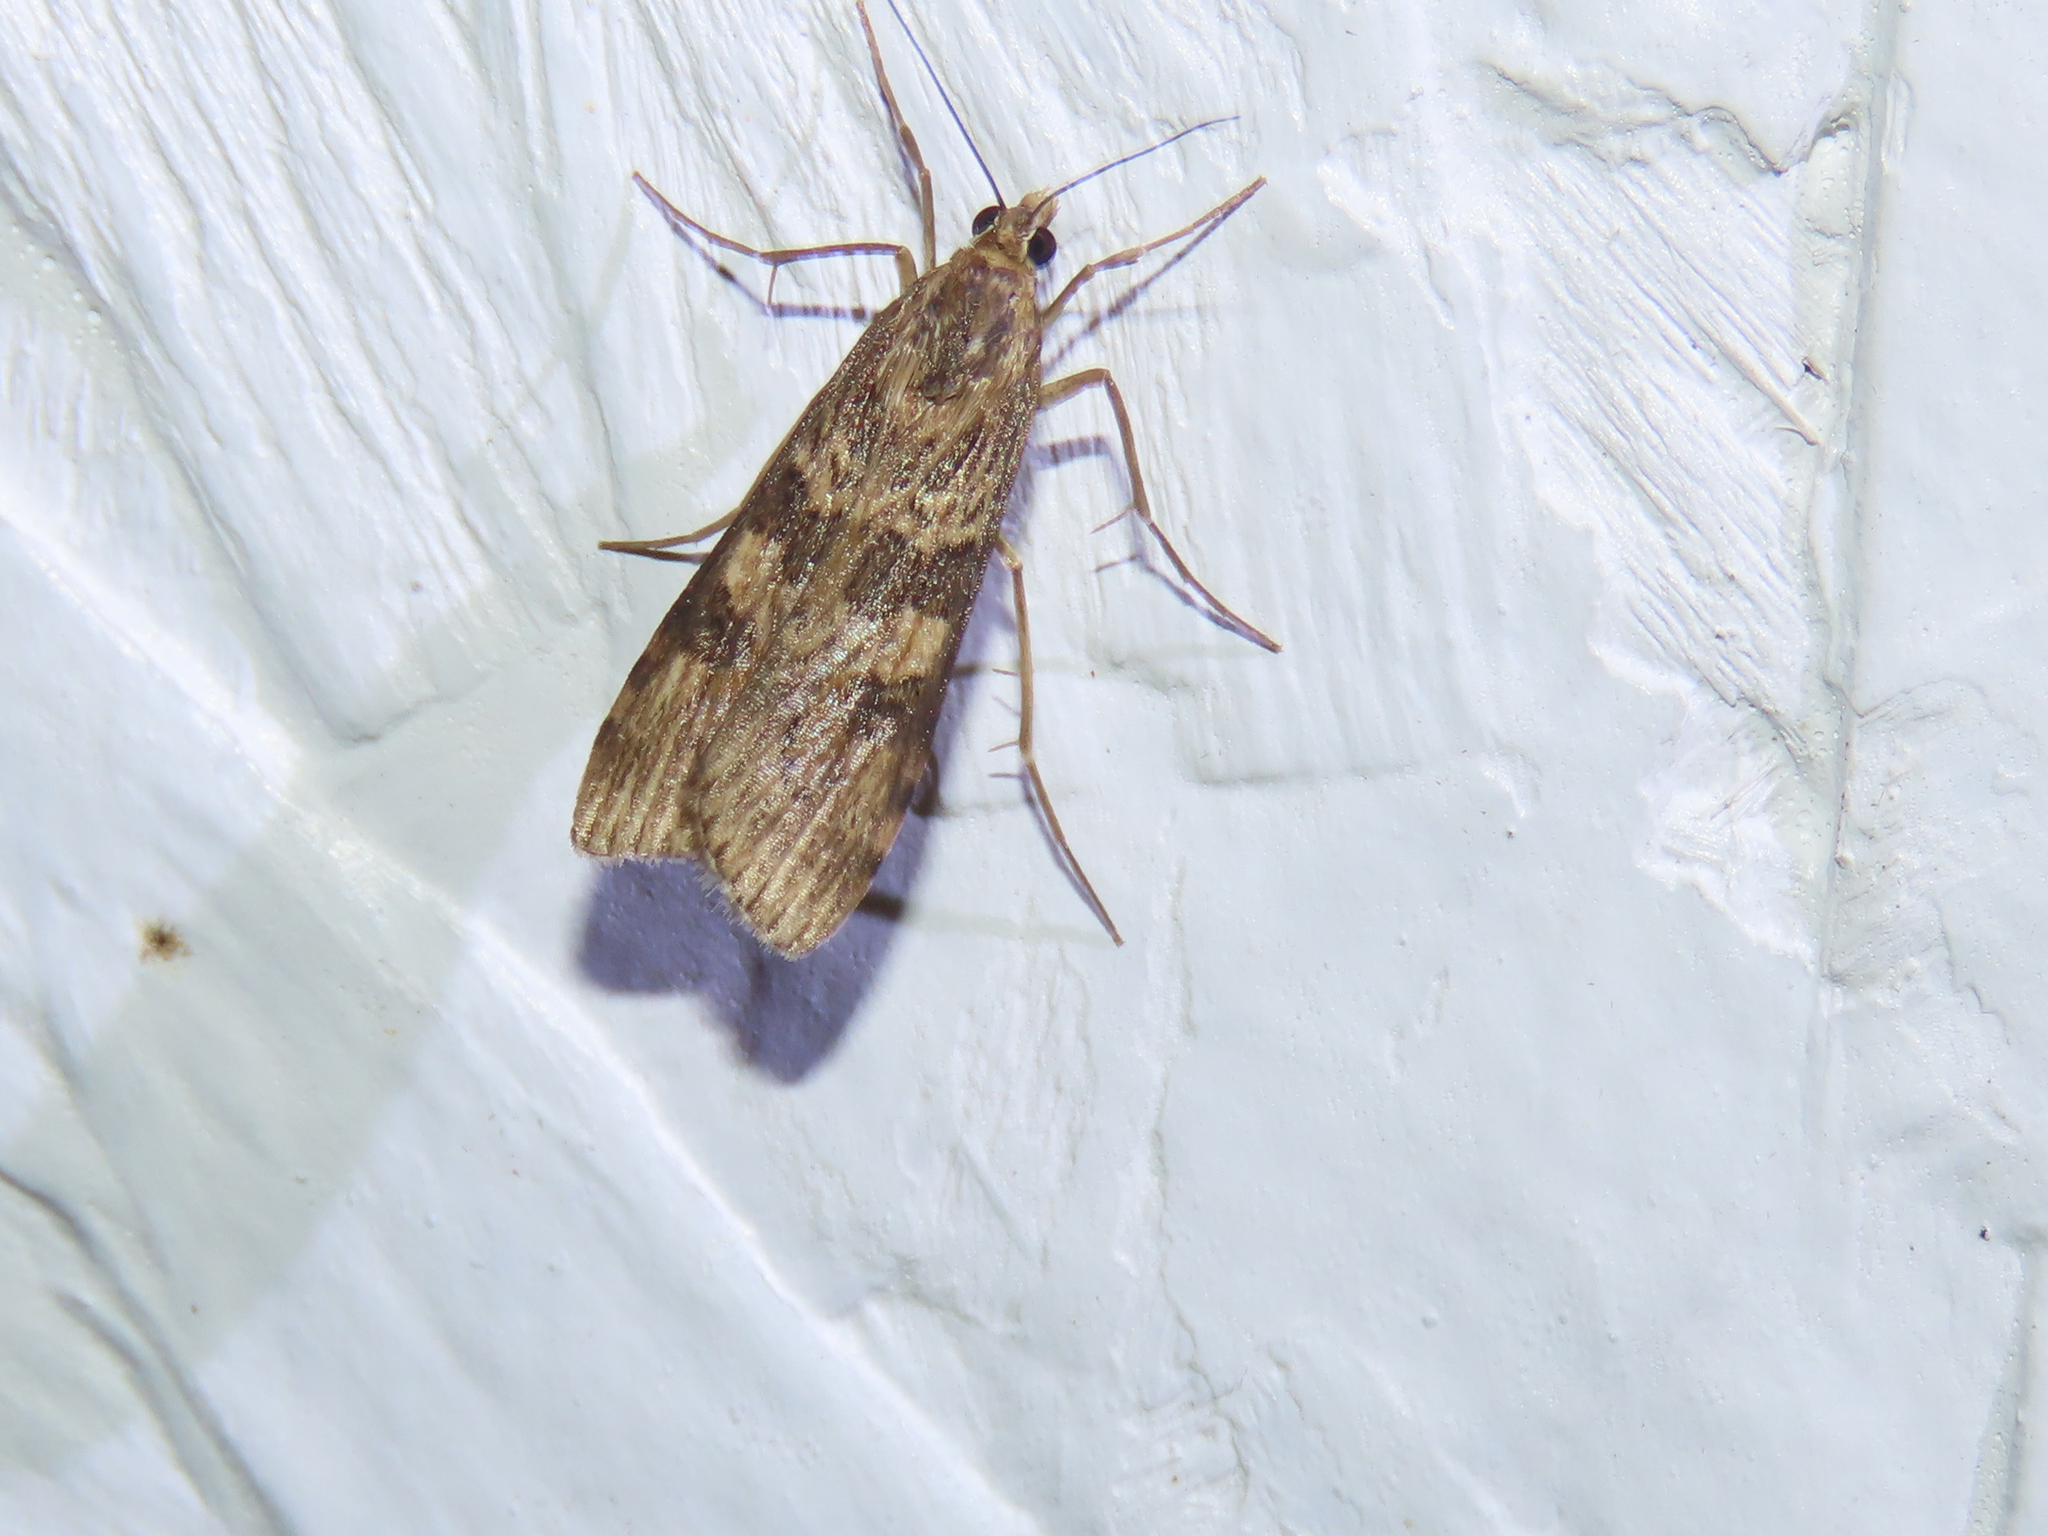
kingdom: Animalia
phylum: Arthropoda
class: Insecta
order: Lepidoptera
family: Crambidae
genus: Nomophila
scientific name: Nomophila nearctica
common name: American rush veneer
